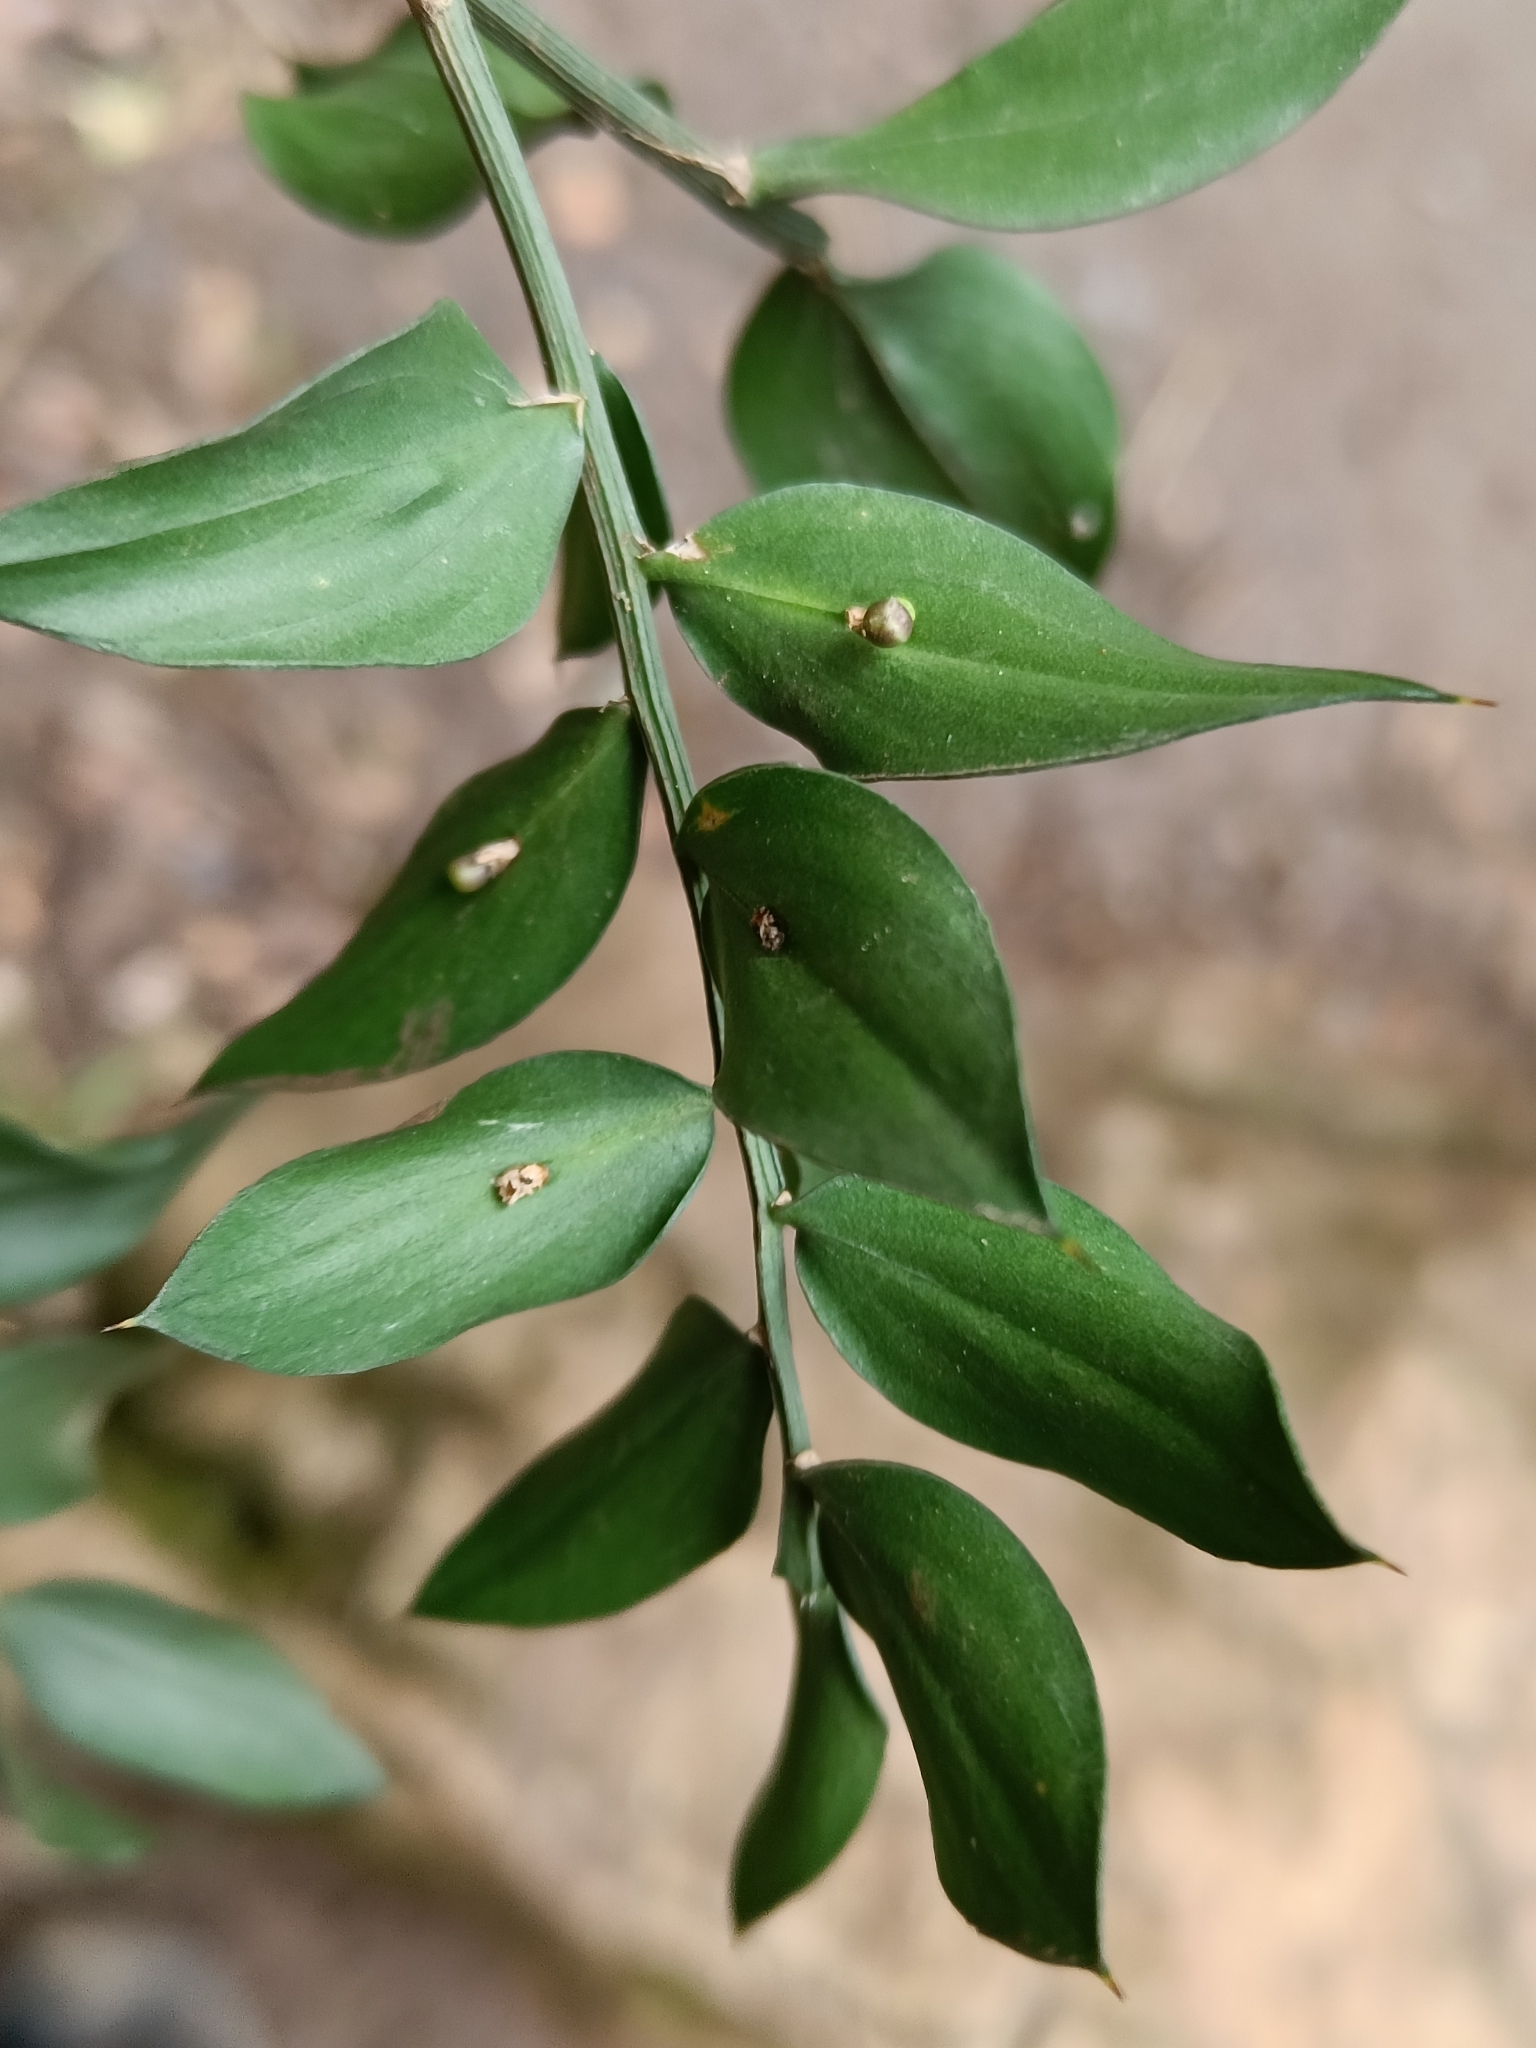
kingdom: Plantae
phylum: Tracheophyta
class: Liliopsida
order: Asparagales
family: Asparagaceae
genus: Ruscus
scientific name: Ruscus aculeatus
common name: Butcher's-broom
